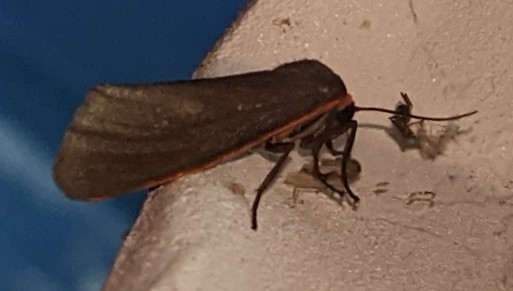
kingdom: Animalia
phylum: Arthropoda
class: Insecta
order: Lepidoptera
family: Erebidae
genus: Virbia
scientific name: Virbia laeta
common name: Joyful holomelina moth
